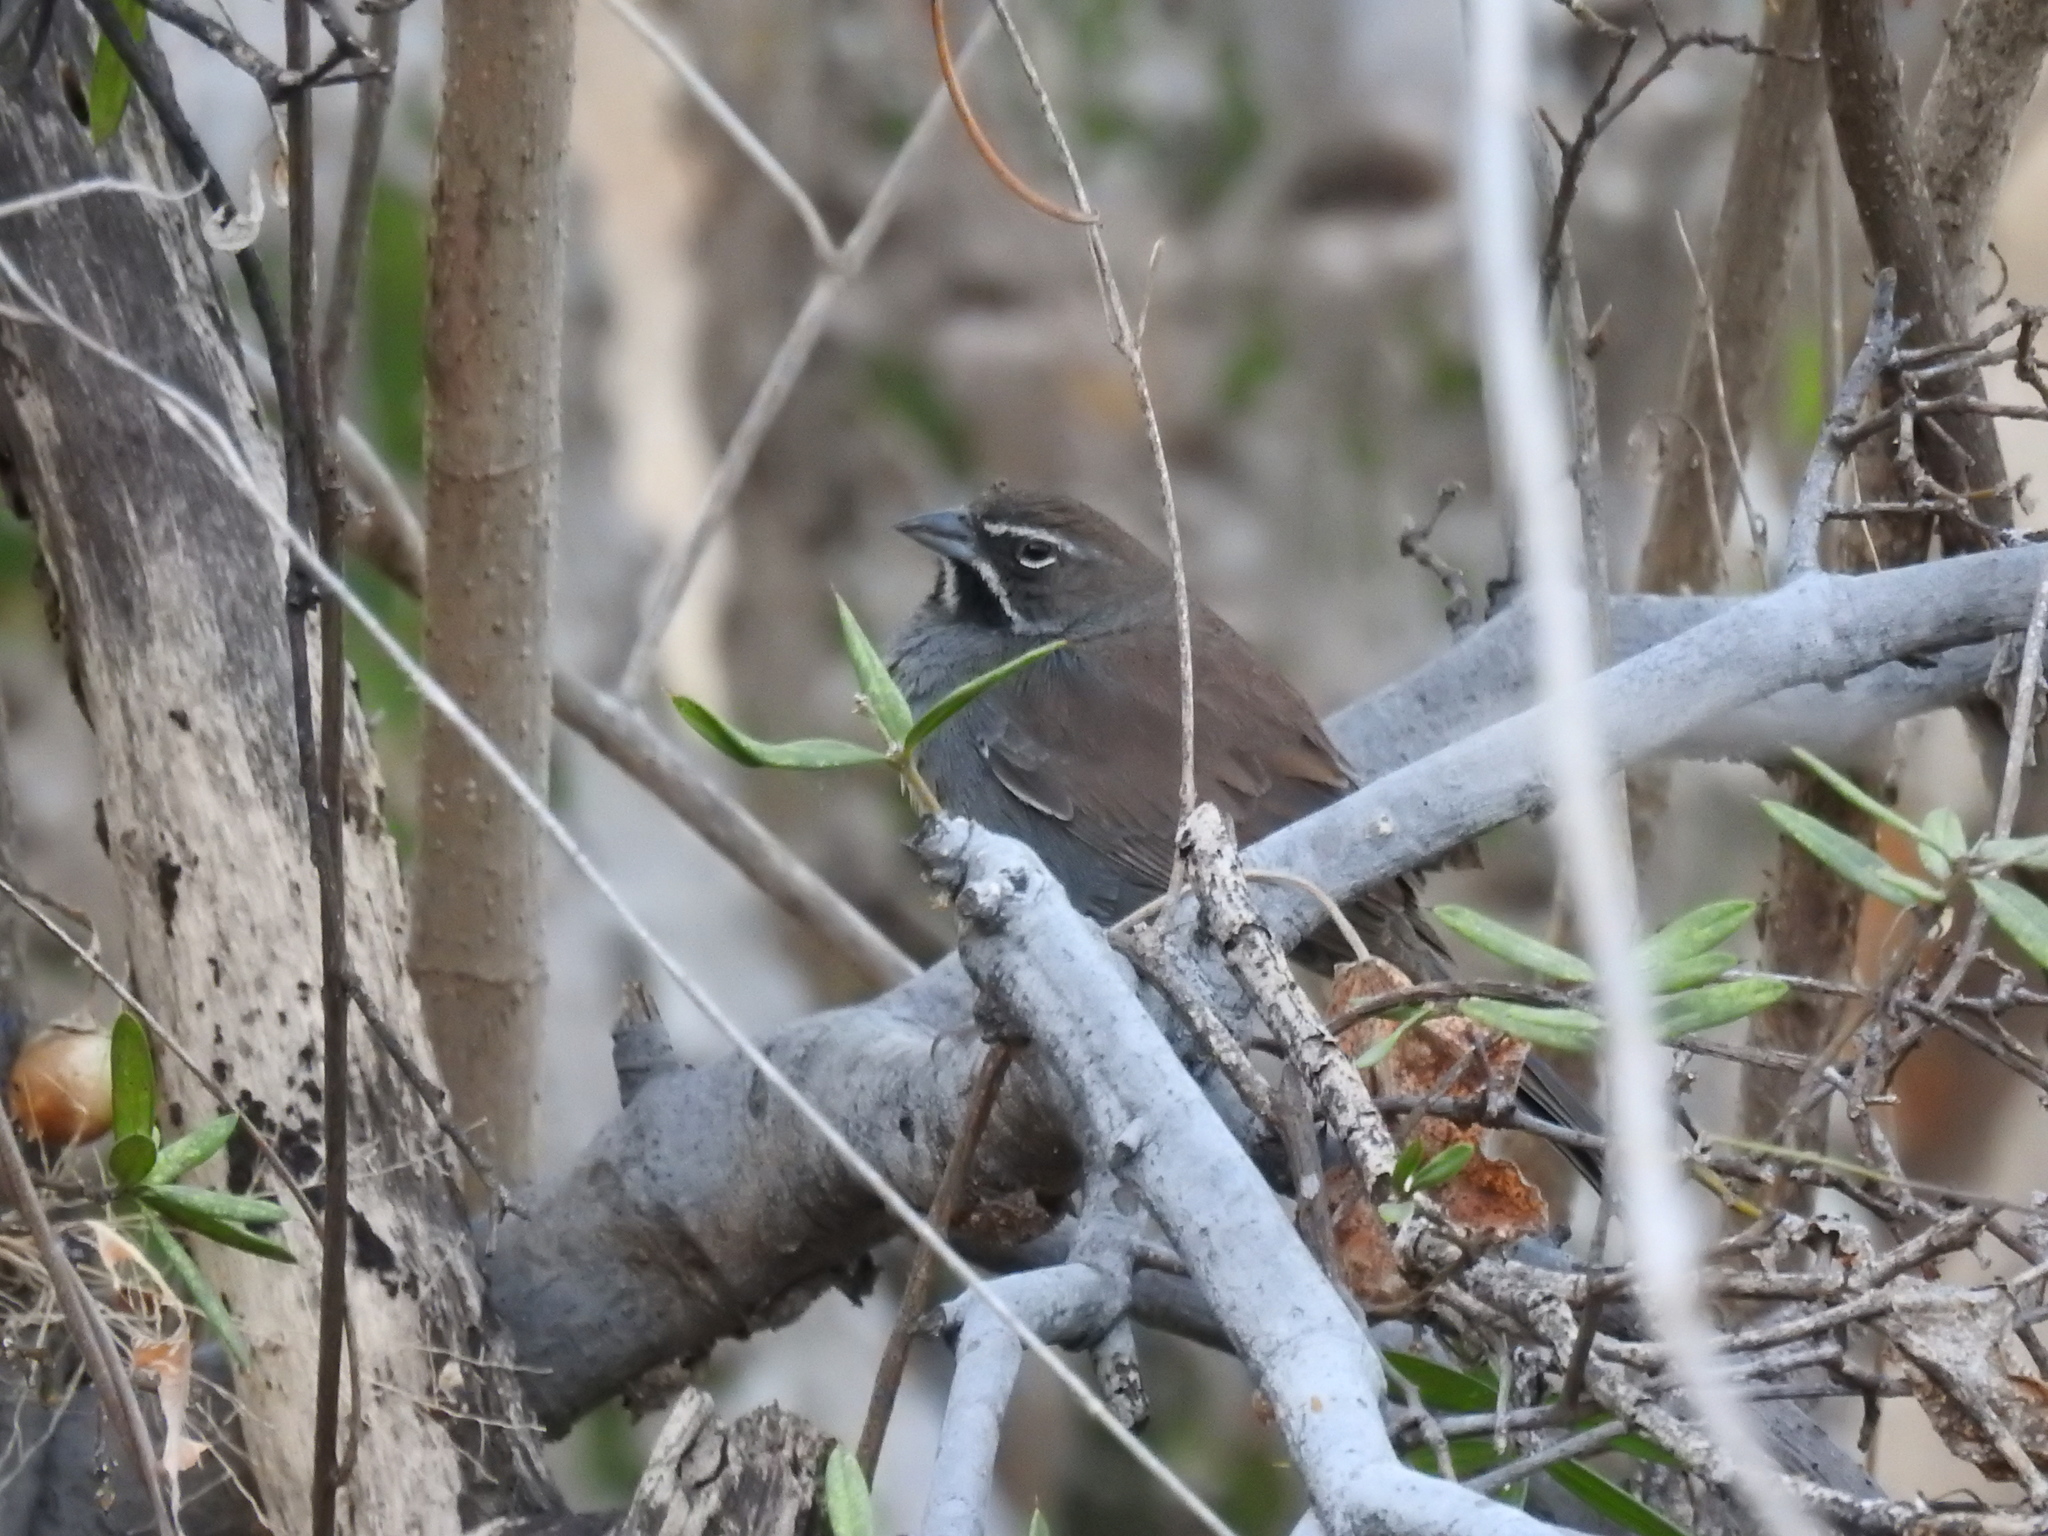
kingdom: Animalia
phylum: Chordata
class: Aves
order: Passeriformes
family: Passerellidae
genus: Amphispizopsis
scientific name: Amphispizopsis quinquestriata
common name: Five-striped sparrow
